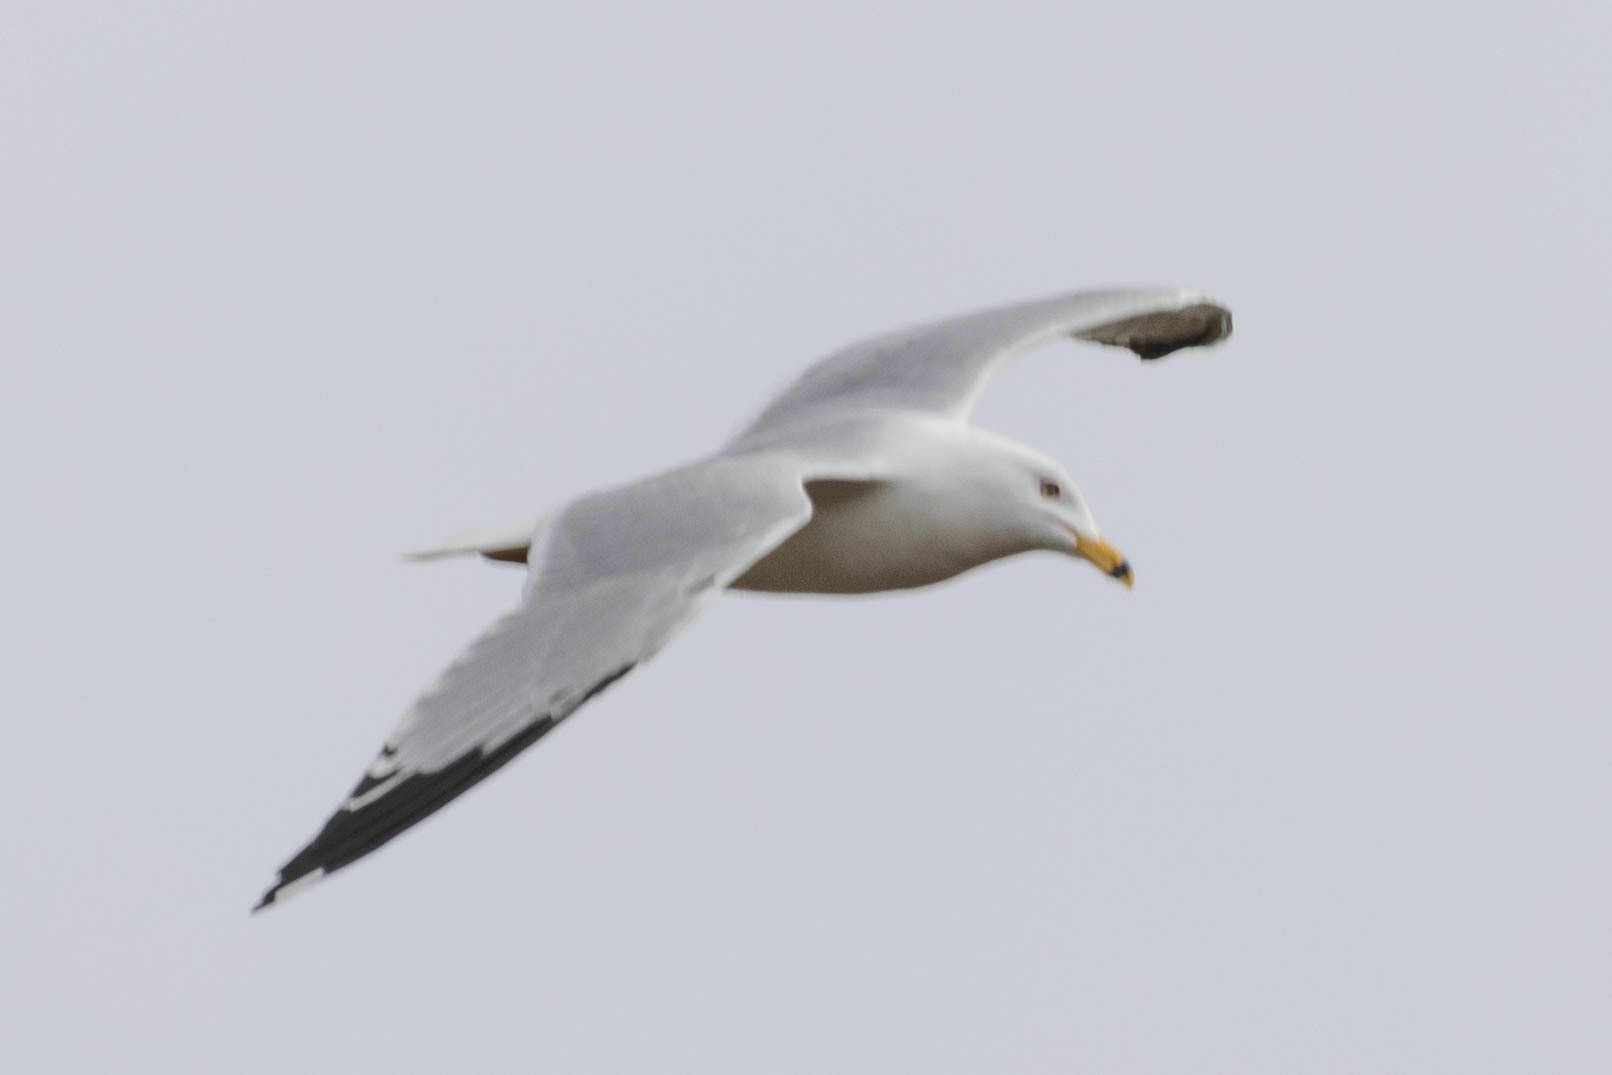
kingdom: Animalia
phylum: Chordata
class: Aves
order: Charadriiformes
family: Laridae
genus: Larus
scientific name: Larus delawarensis
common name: Ring-billed gull
